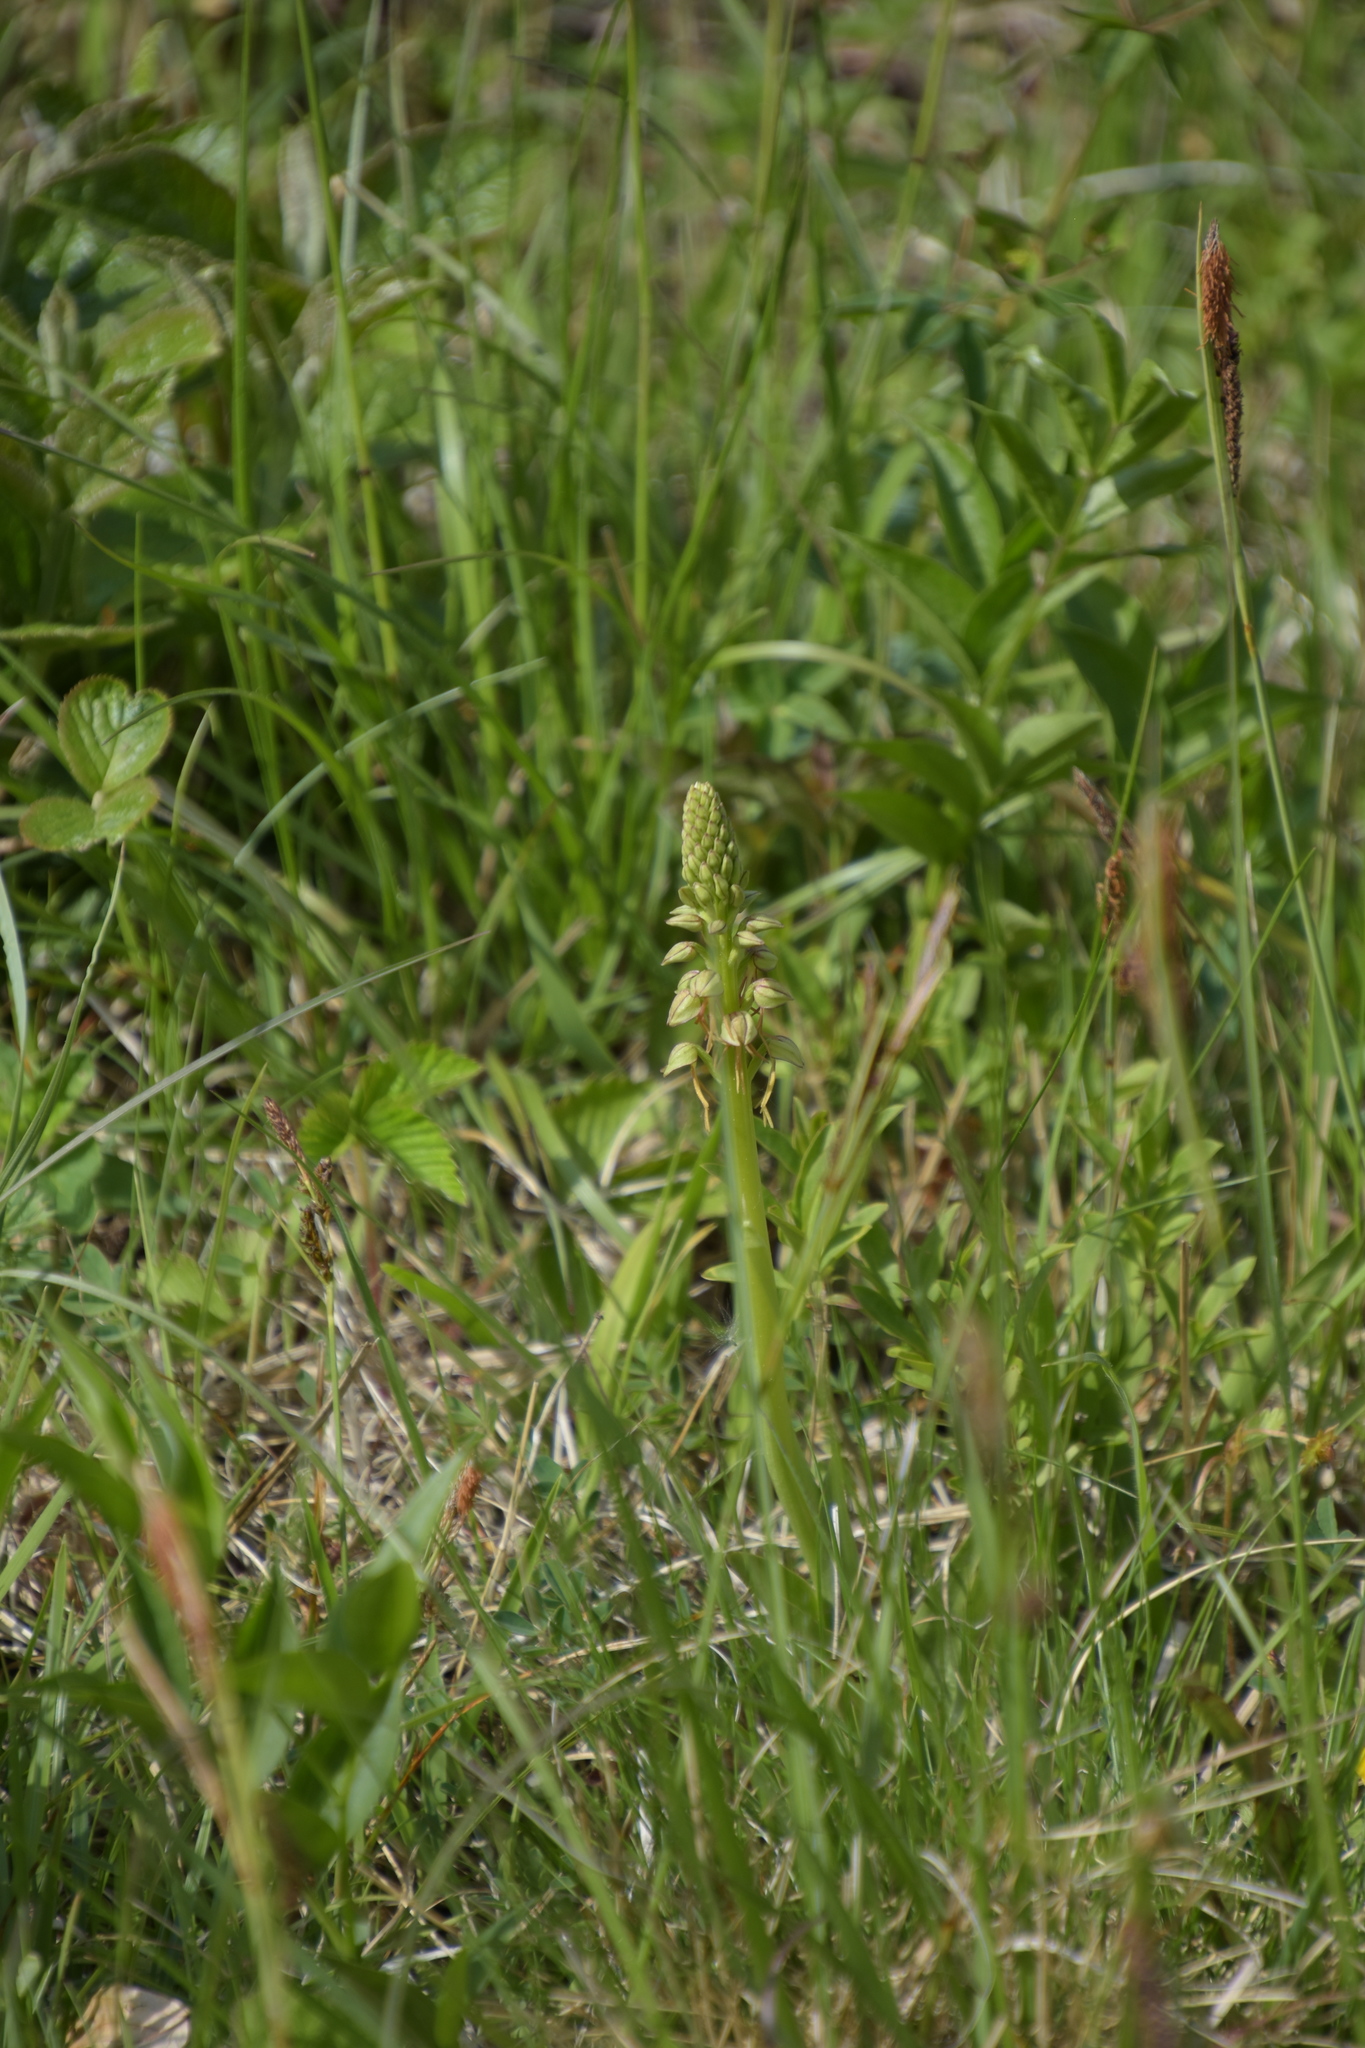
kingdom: Plantae
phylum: Tracheophyta
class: Liliopsida
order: Asparagales
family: Orchidaceae
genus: Orchis
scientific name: Orchis anthropophora
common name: Man orchid
